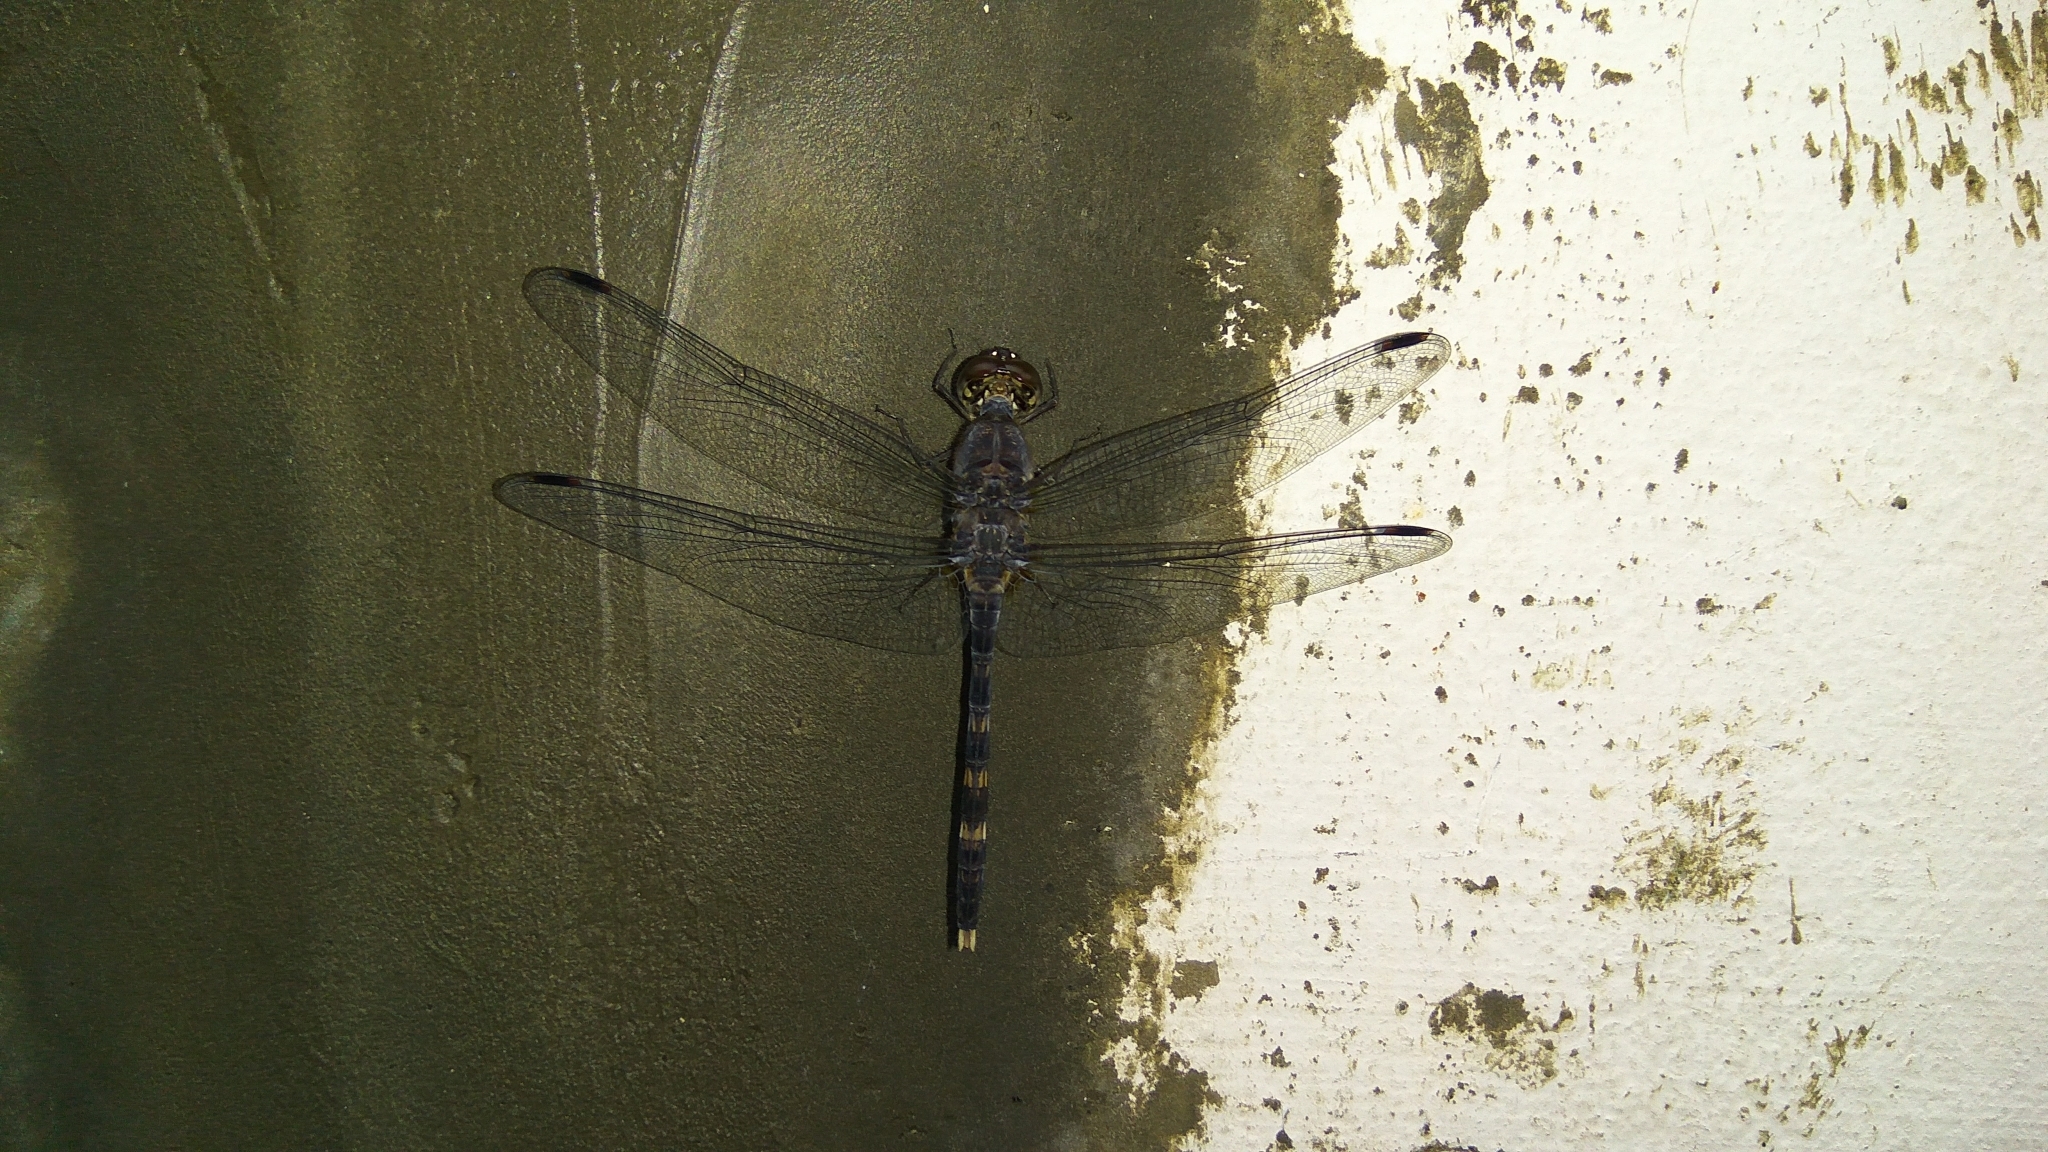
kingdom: Animalia
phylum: Arthropoda
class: Insecta
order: Odonata
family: Libellulidae
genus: Bradinopyga
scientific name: Bradinopyga geminata
